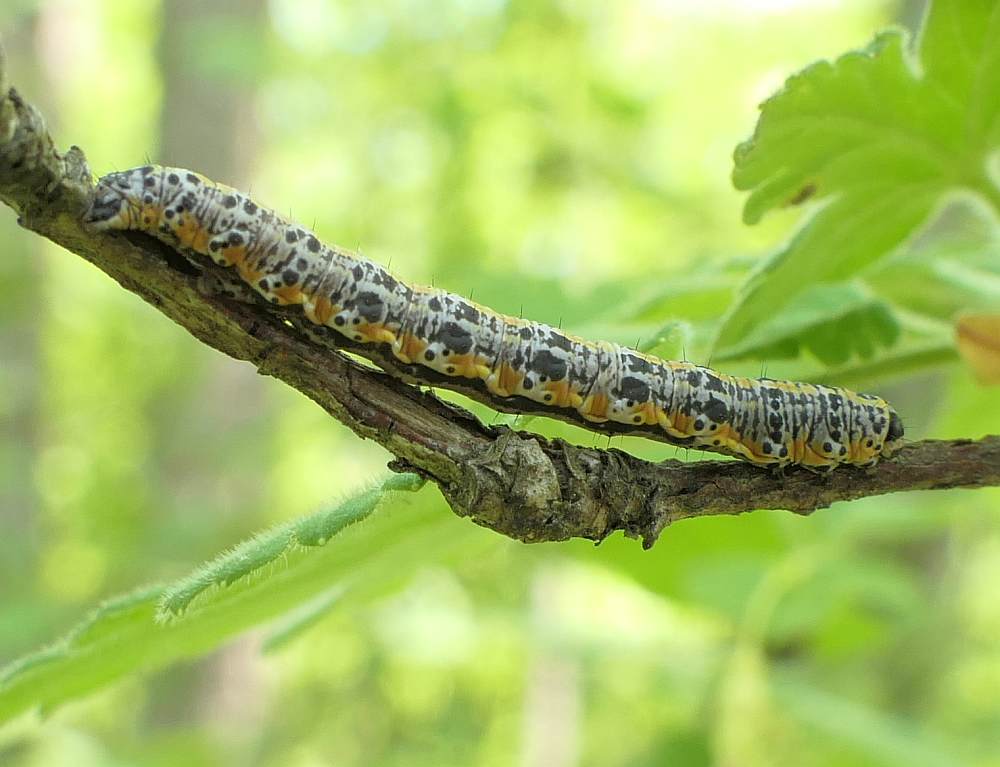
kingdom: Animalia
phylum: Arthropoda
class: Insecta
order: Lepidoptera
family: Geometridae
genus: Macaria
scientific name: Macaria evagaria
